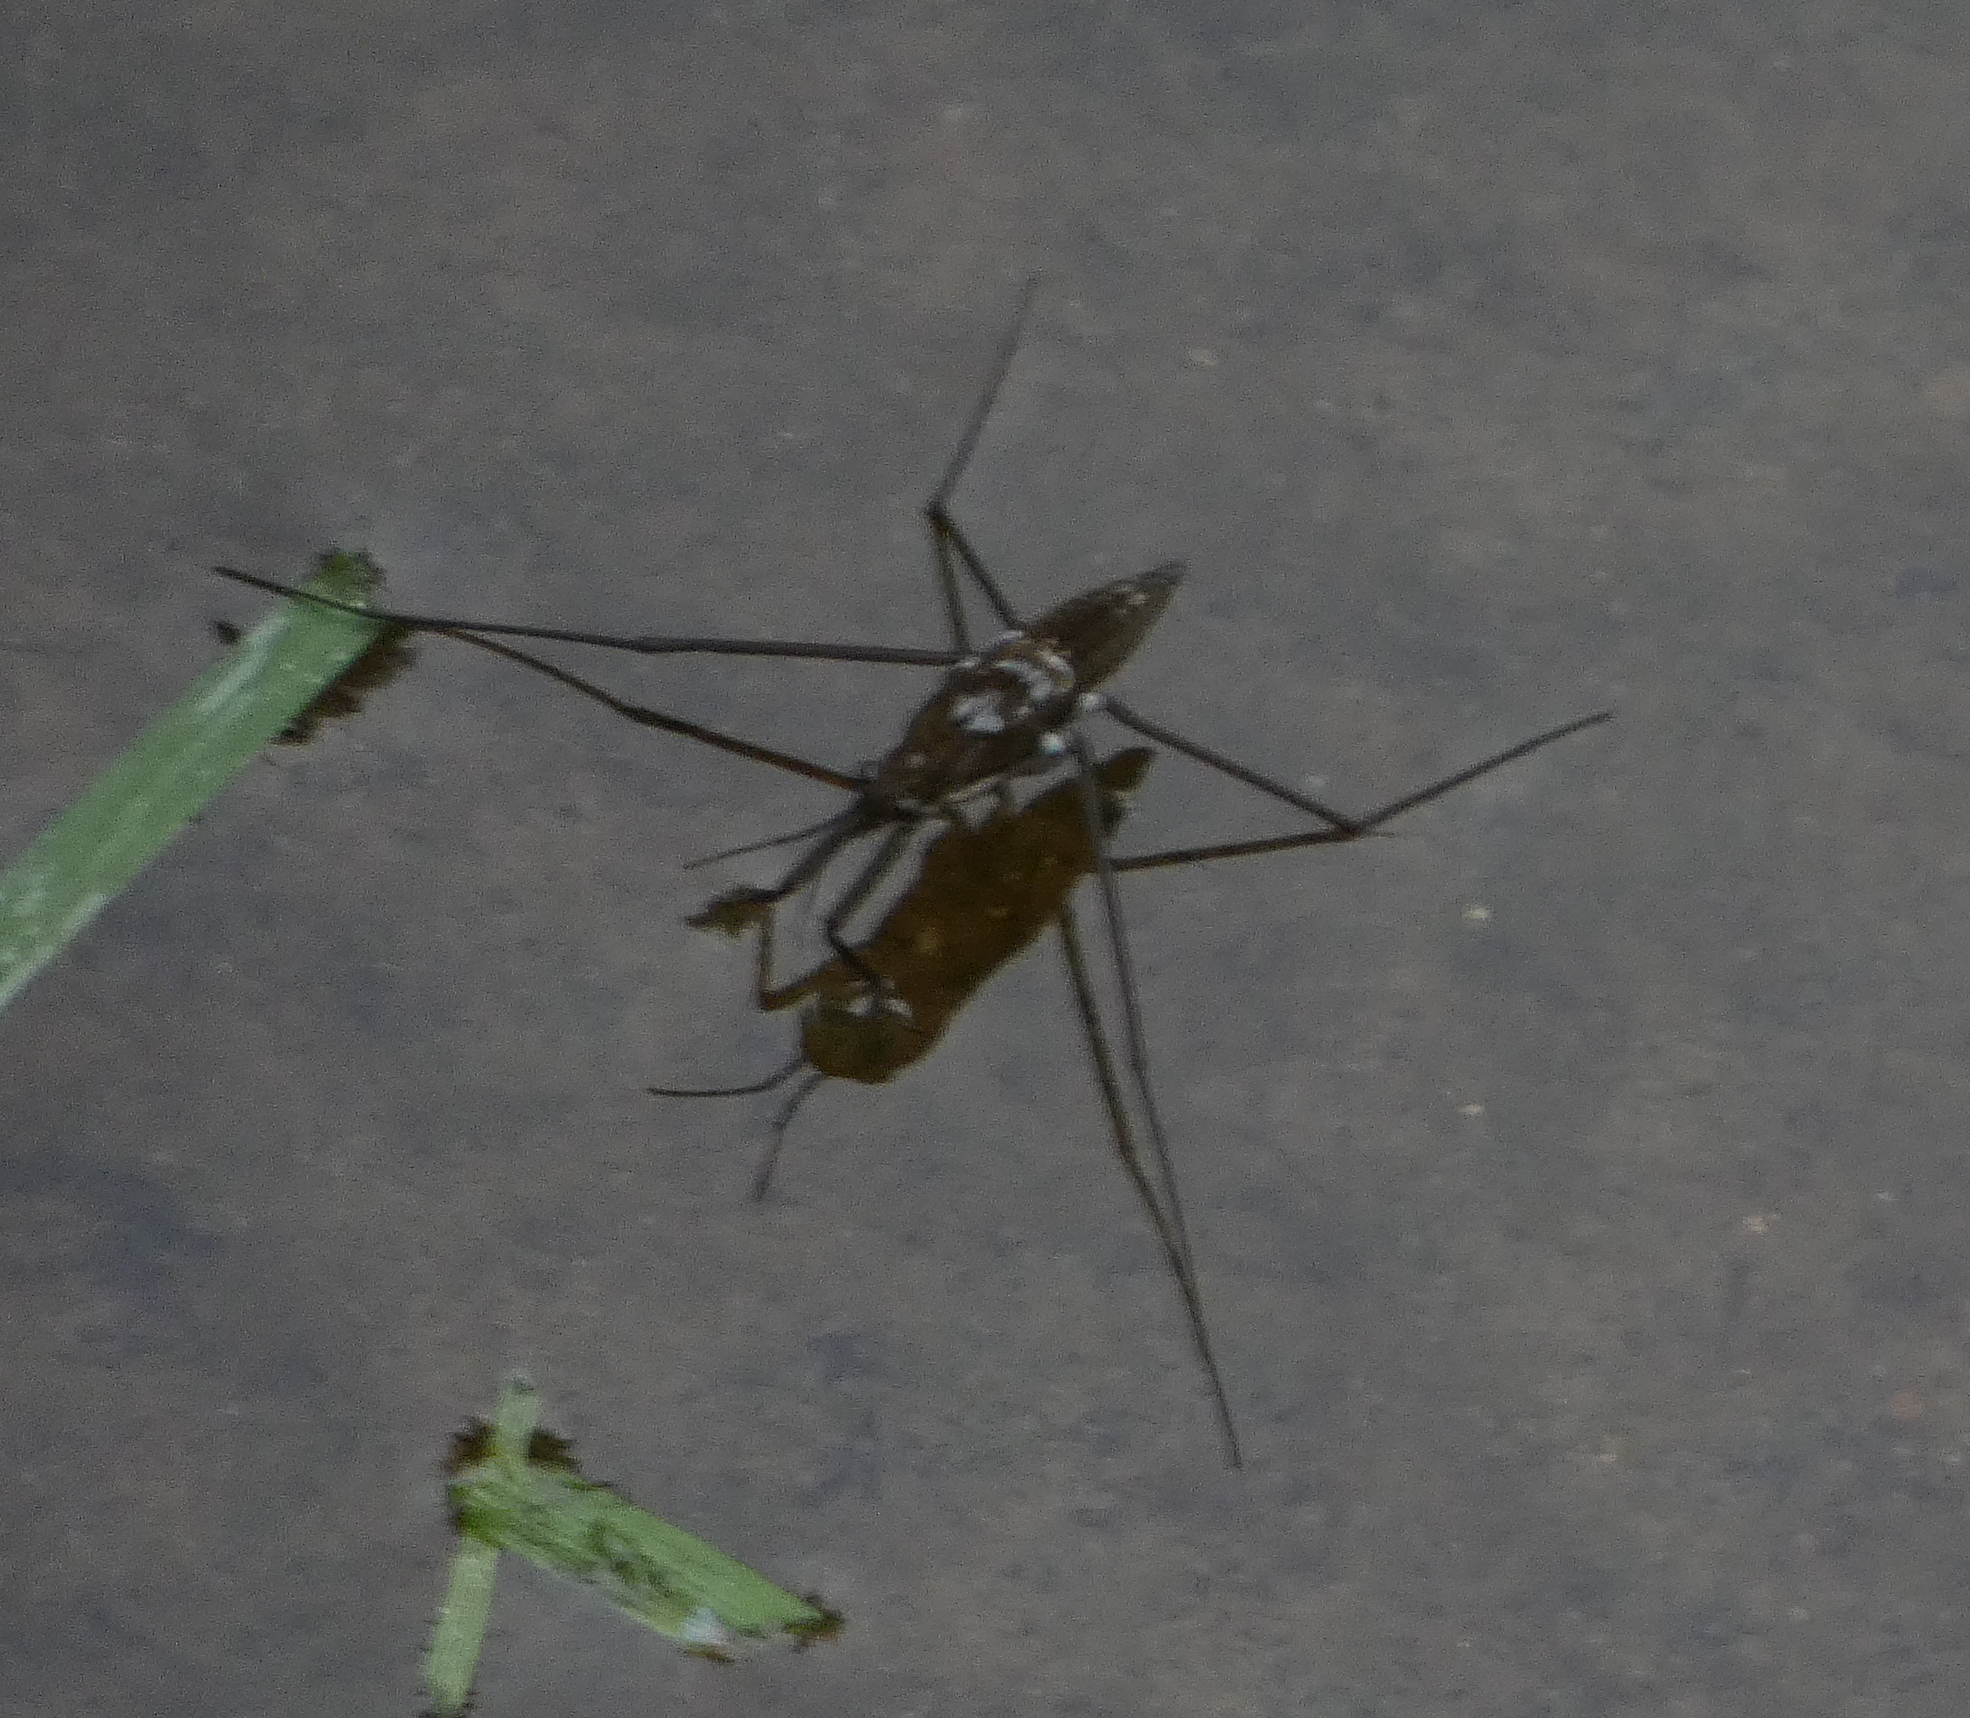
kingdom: Animalia
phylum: Arthropoda
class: Insecta
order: Hemiptera
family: Gerridae
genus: Aquarius
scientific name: Aquarius
